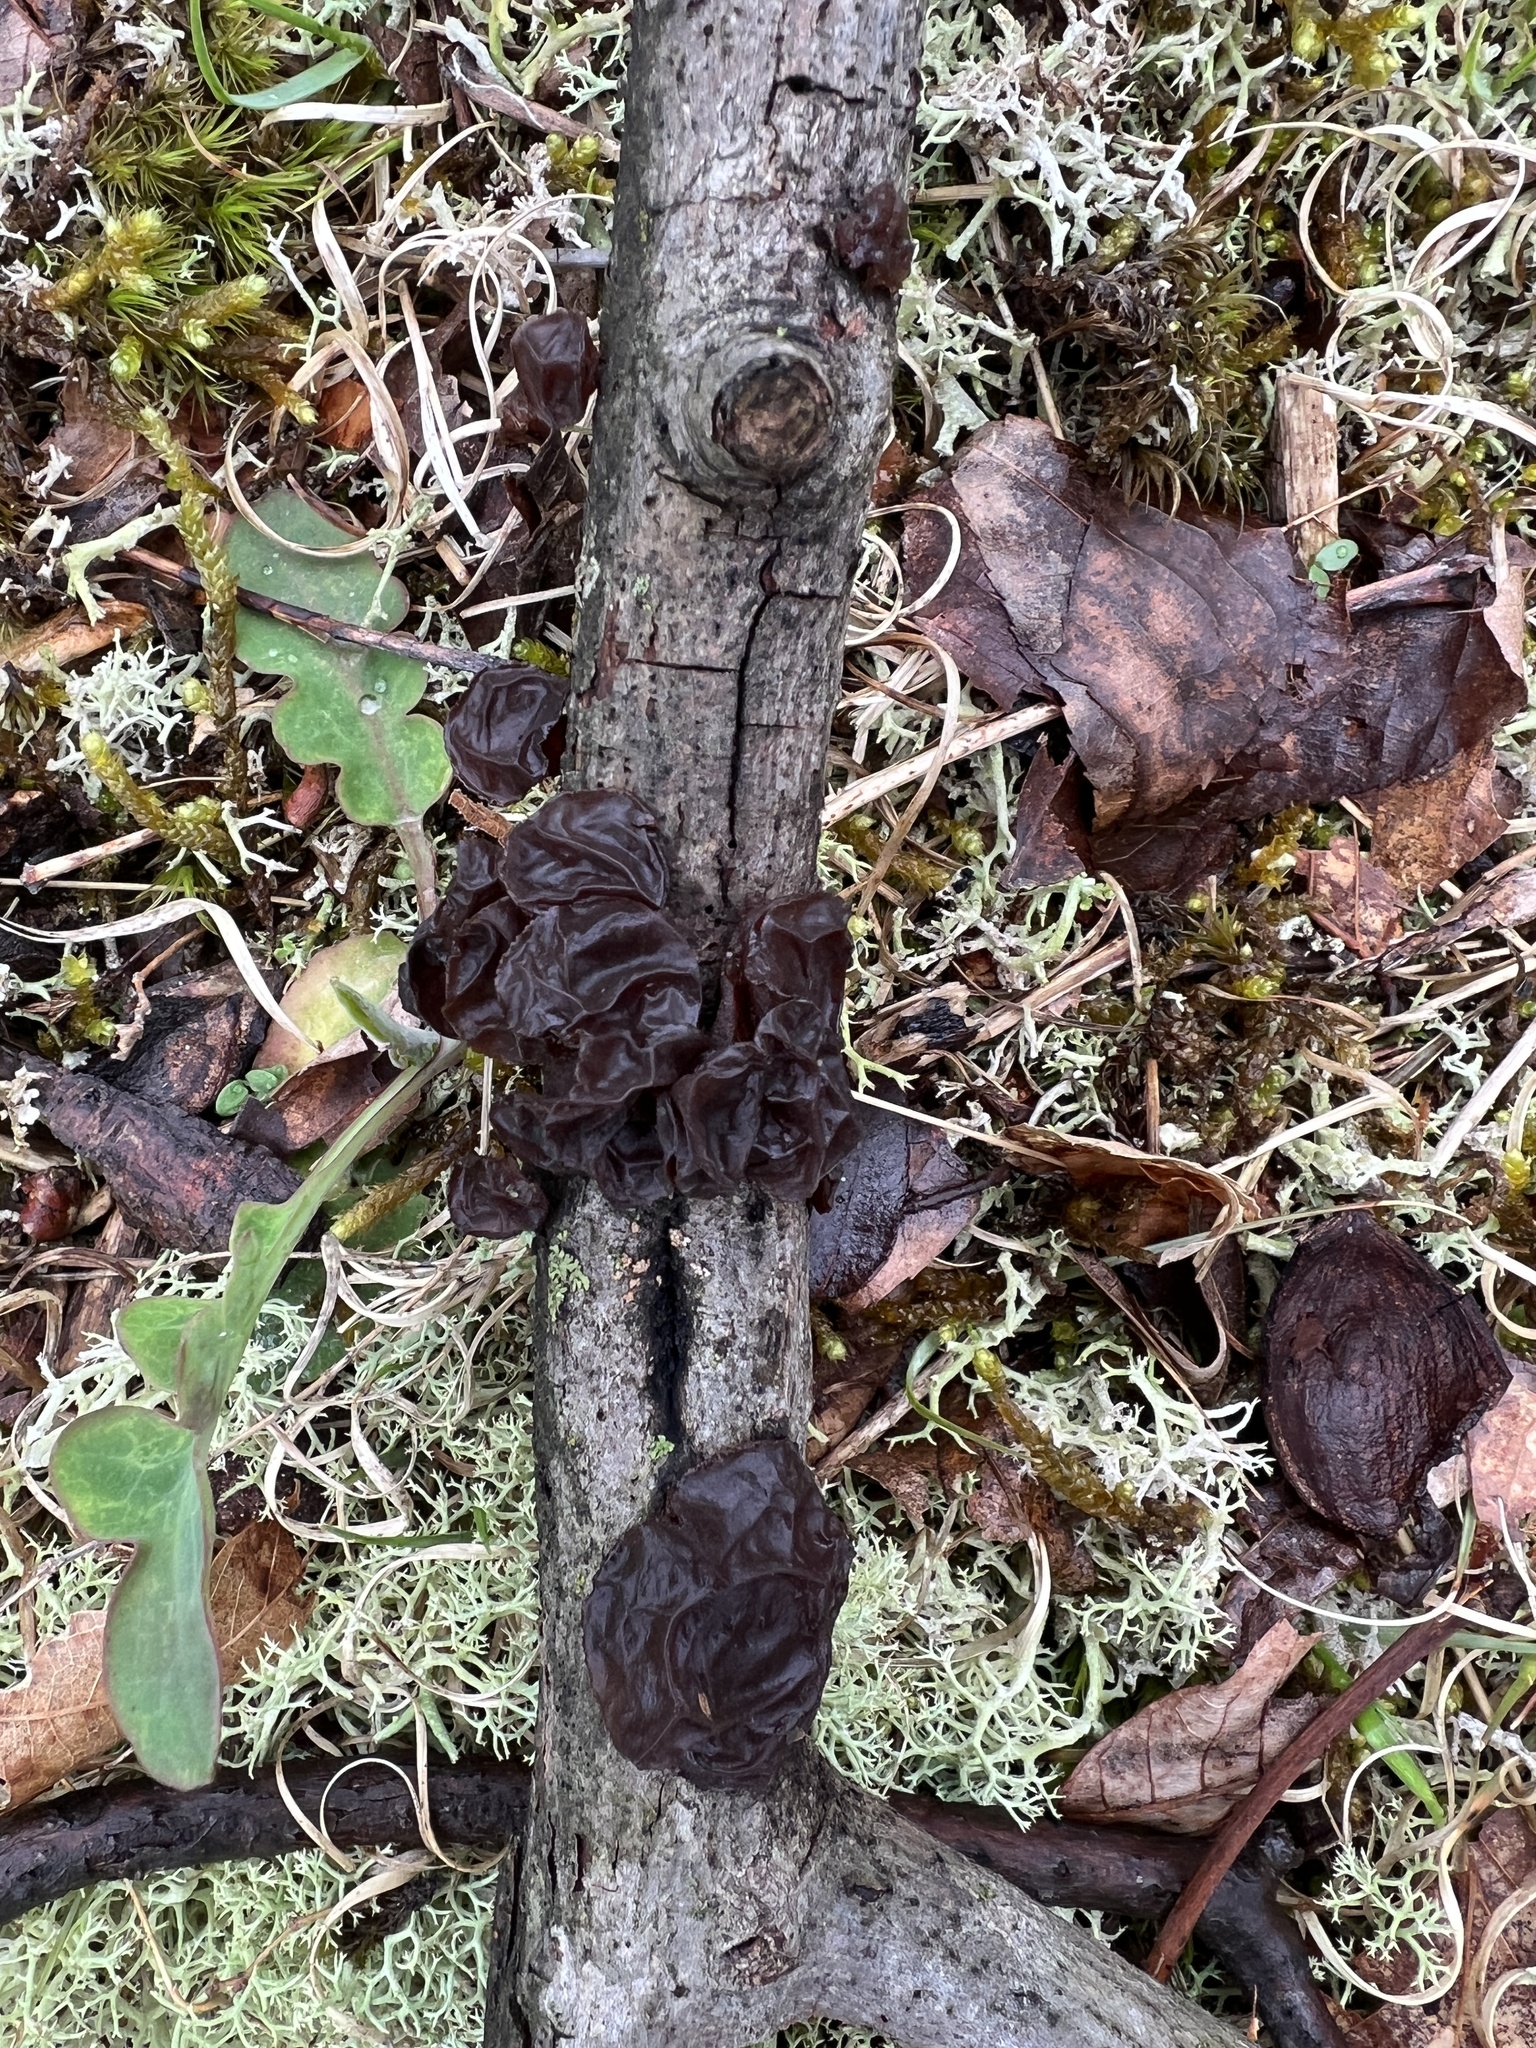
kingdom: Fungi
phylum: Basidiomycota
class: Agaricomycetes
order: Auriculariales
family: Auriculariaceae
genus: Exidia
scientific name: Exidia
